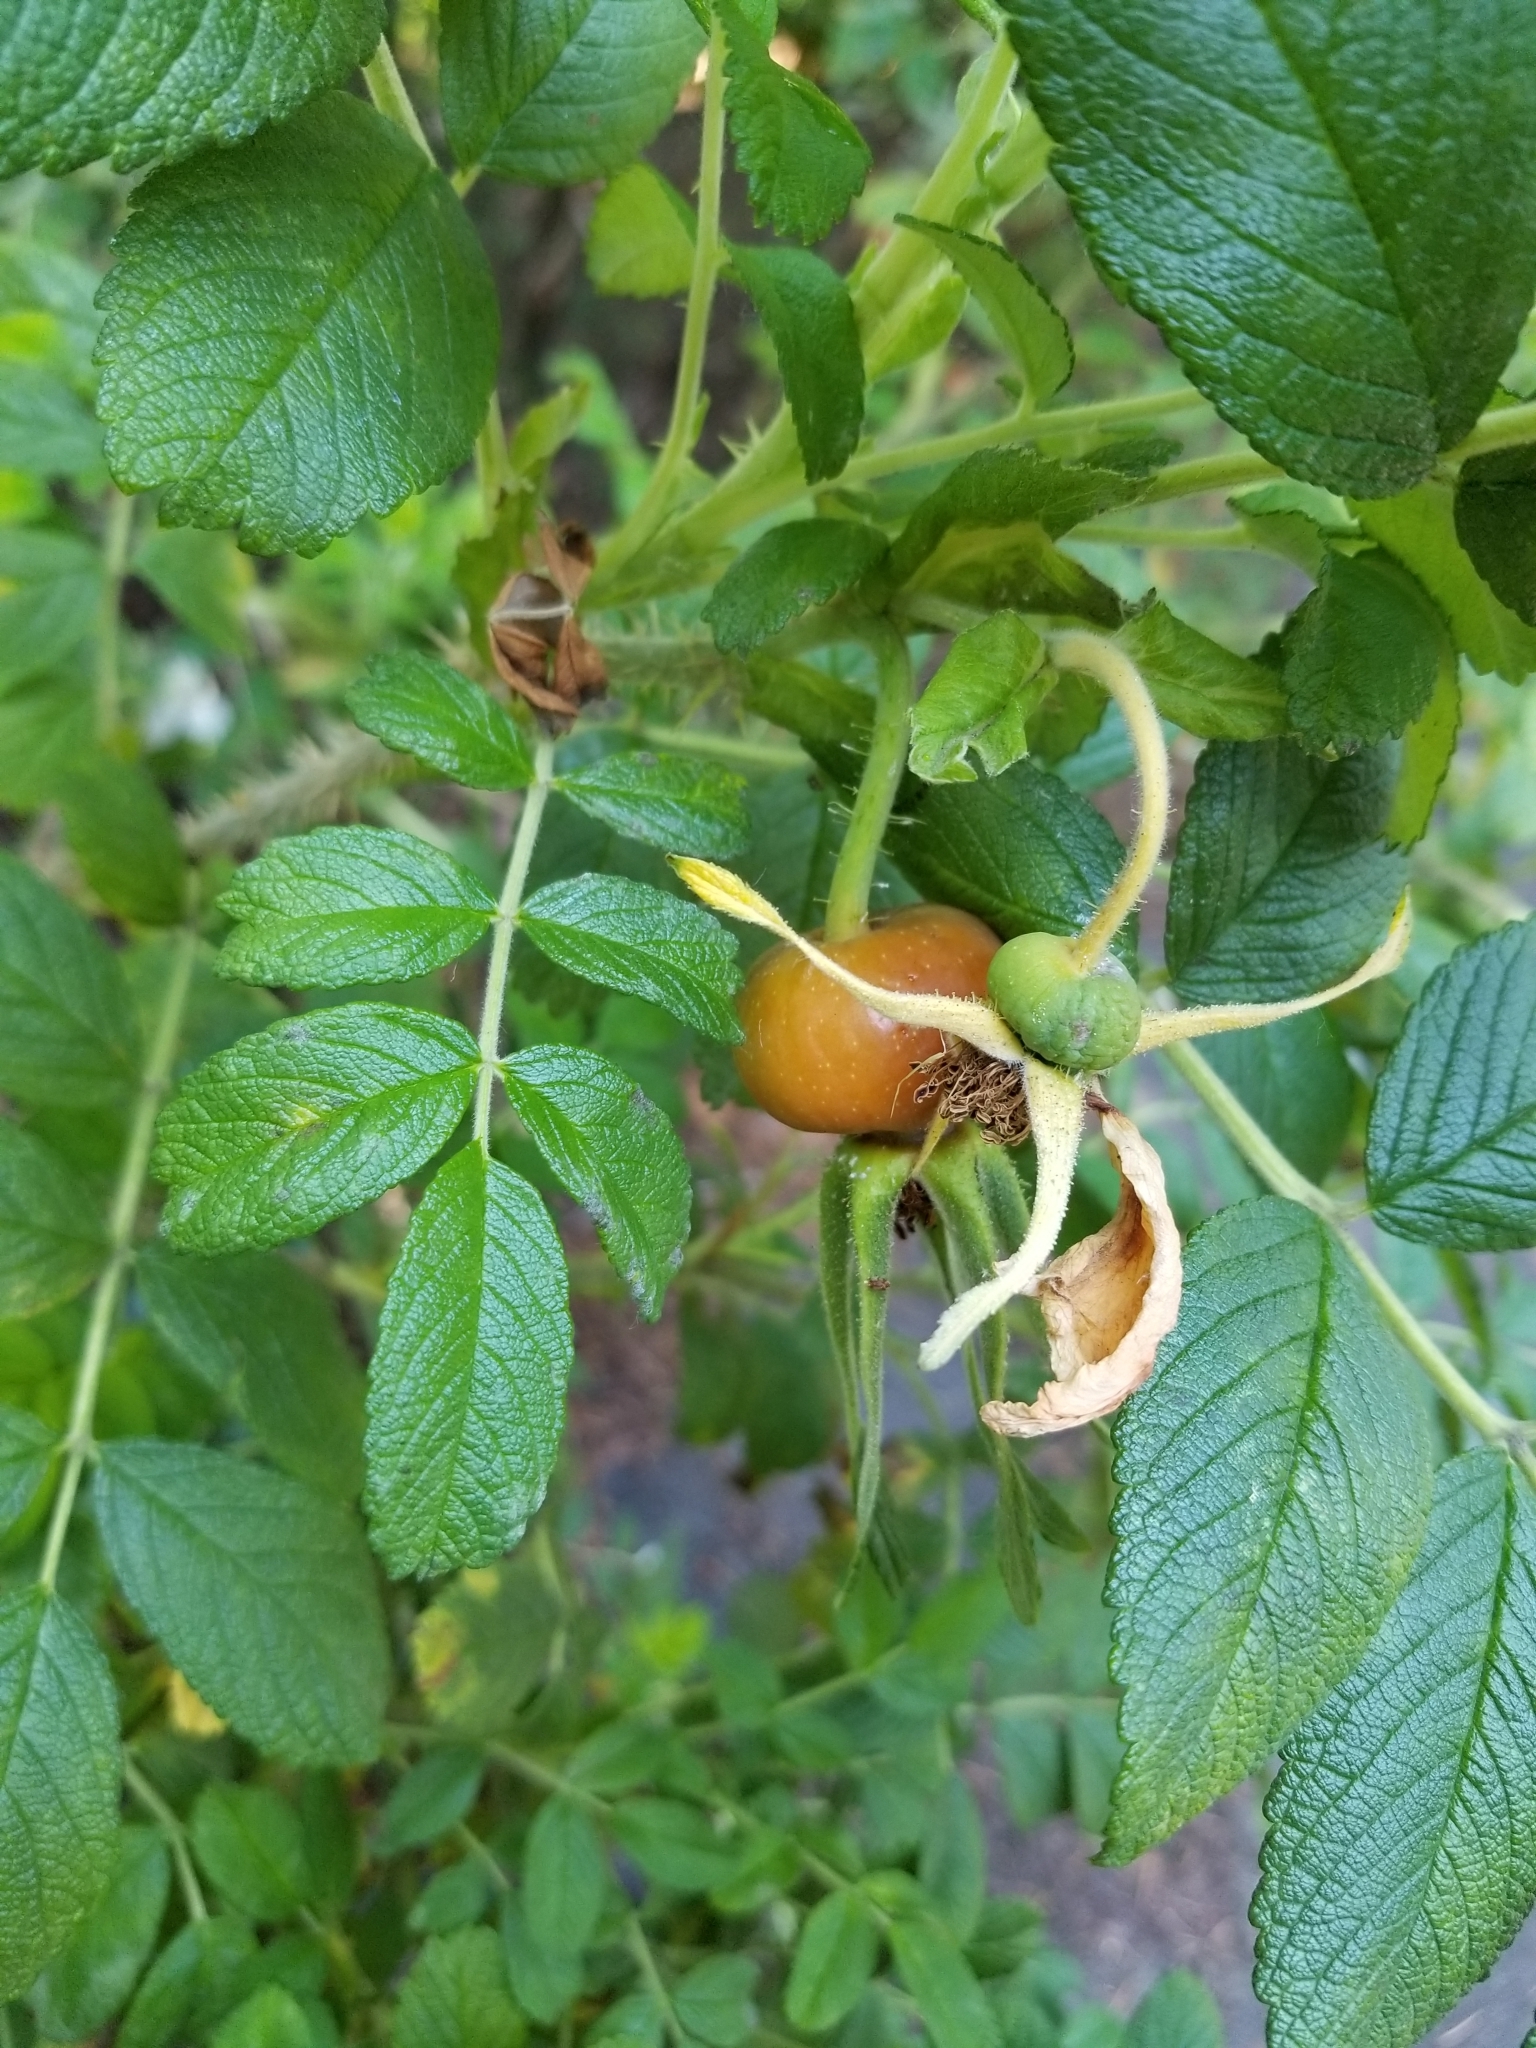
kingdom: Plantae
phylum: Tracheophyta
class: Magnoliopsida
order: Rosales
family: Rosaceae
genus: Rosa
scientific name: Rosa rugosa
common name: Japanese rose
